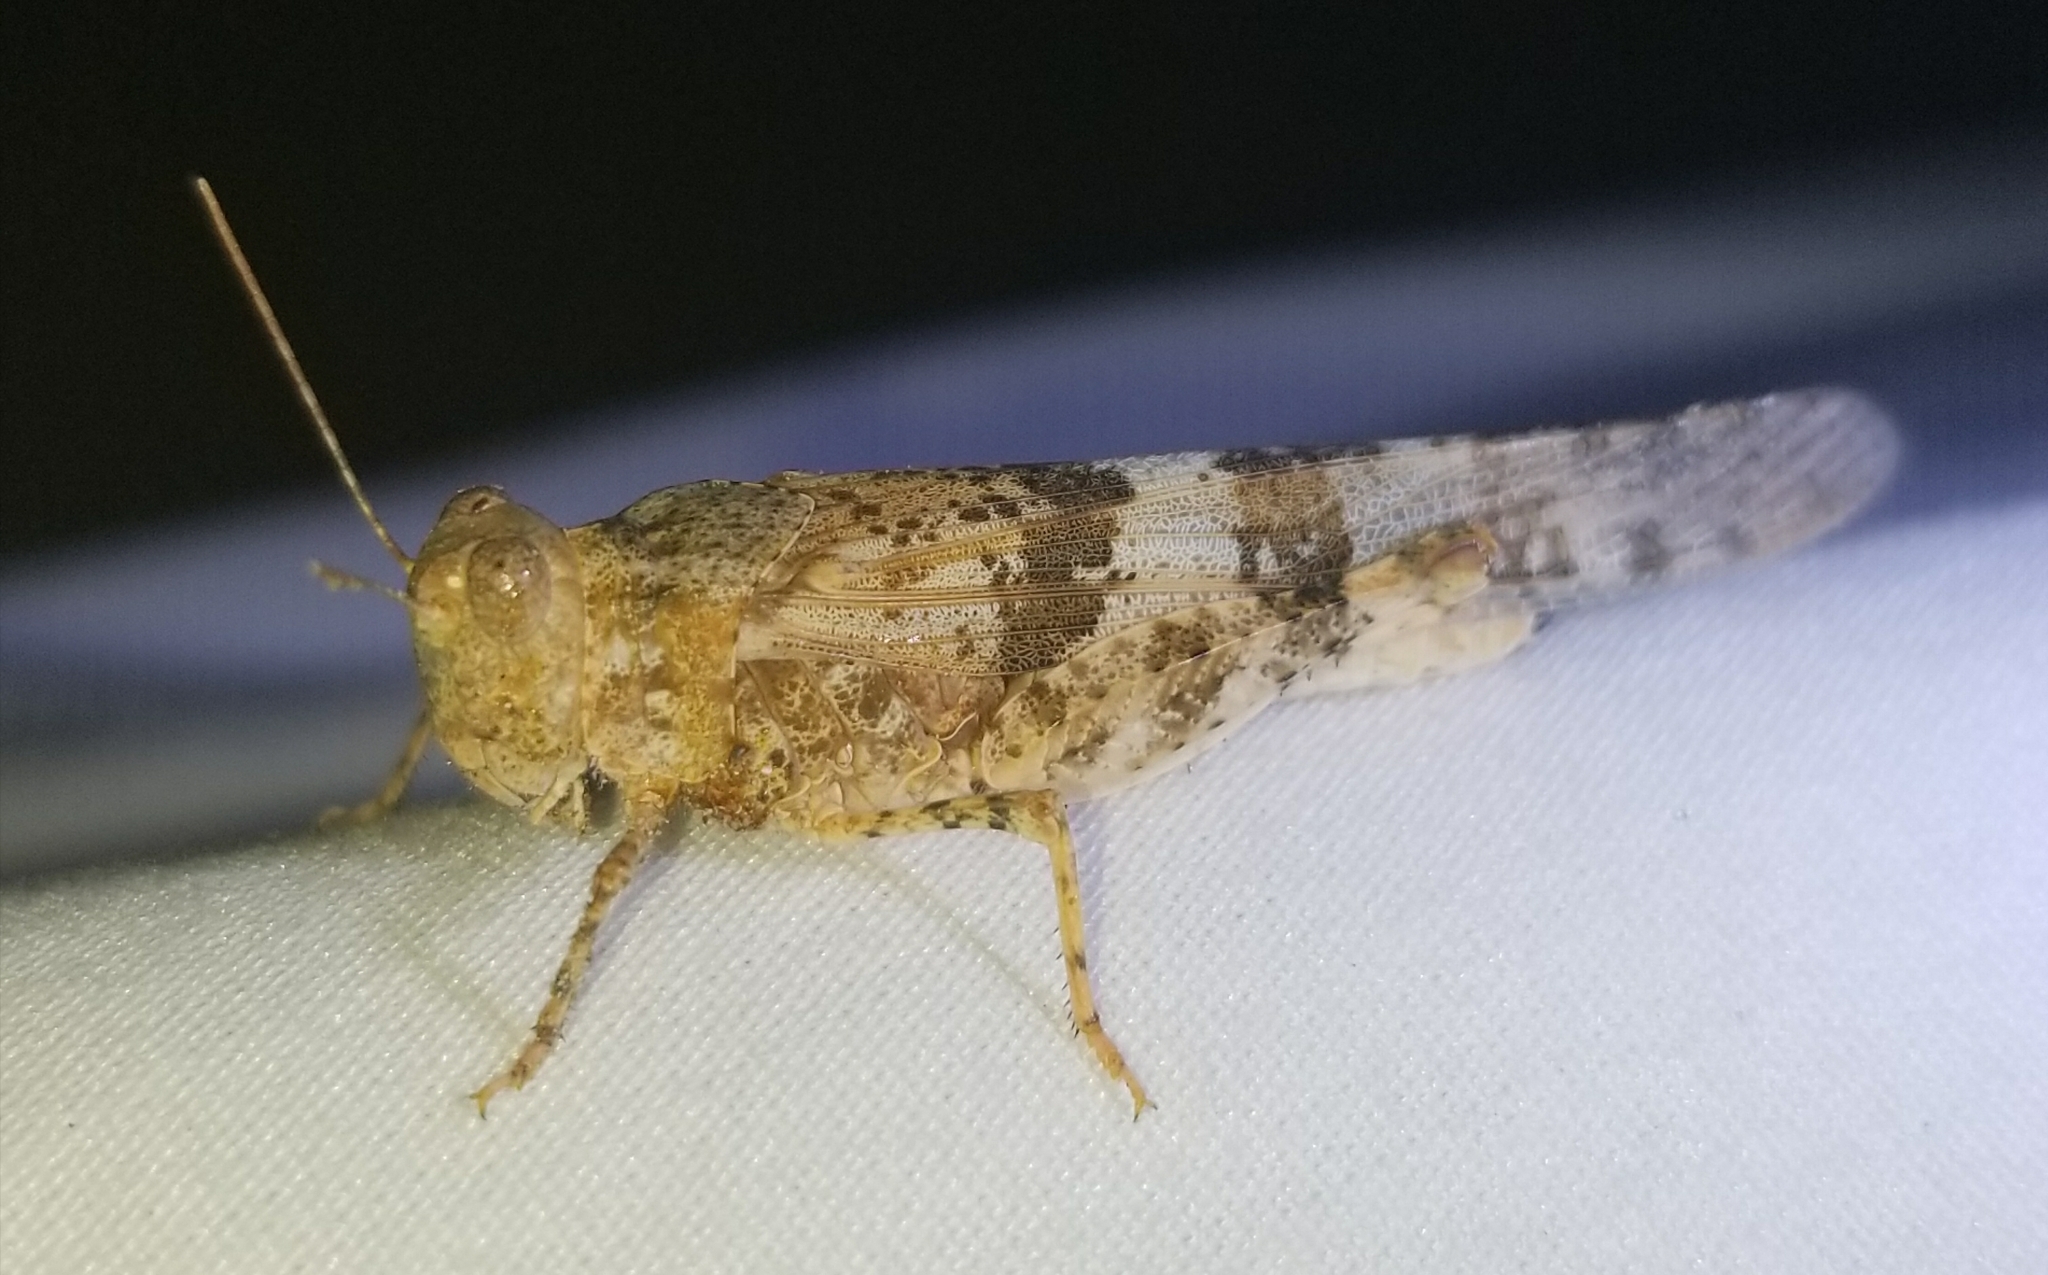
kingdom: Animalia
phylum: Arthropoda
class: Insecta
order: Orthoptera
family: Acrididae
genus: Trimerotropis
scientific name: Trimerotropis pallidipennis
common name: Pallid-winged grasshopper
